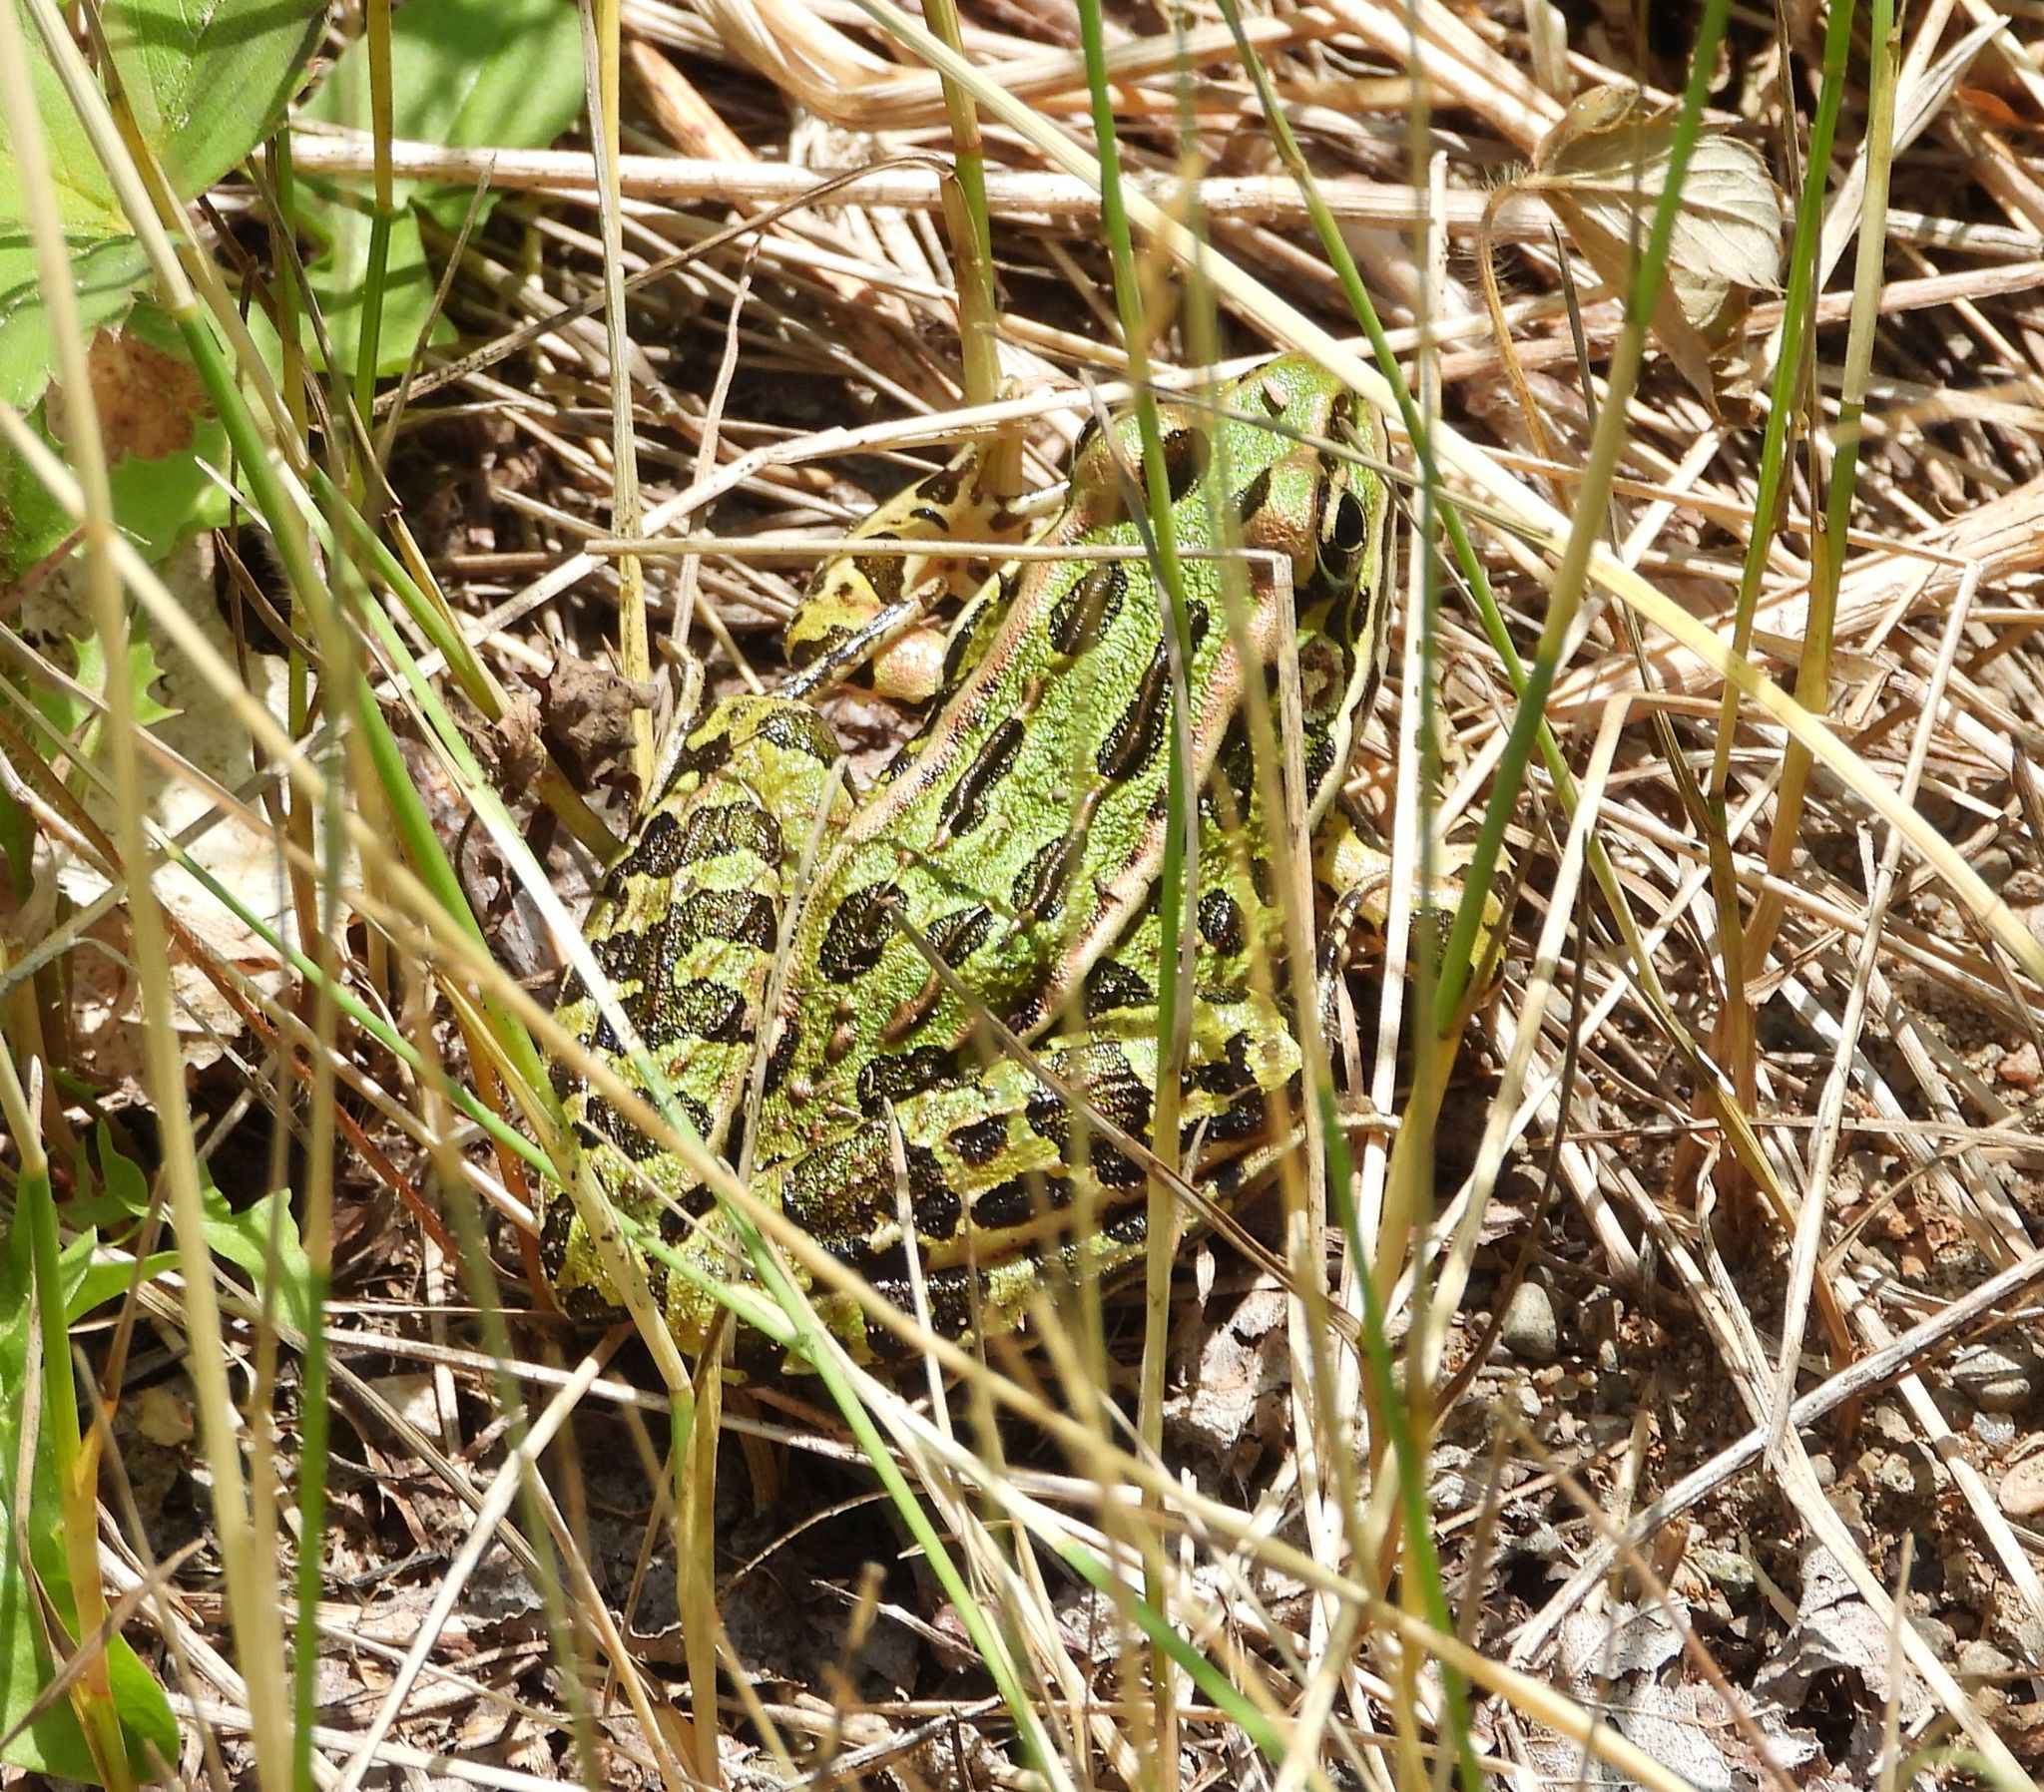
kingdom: Animalia
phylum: Chordata
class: Amphibia
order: Anura
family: Ranidae
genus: Lithobates
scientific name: Lithobates pipiens
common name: Northern leopard frog
